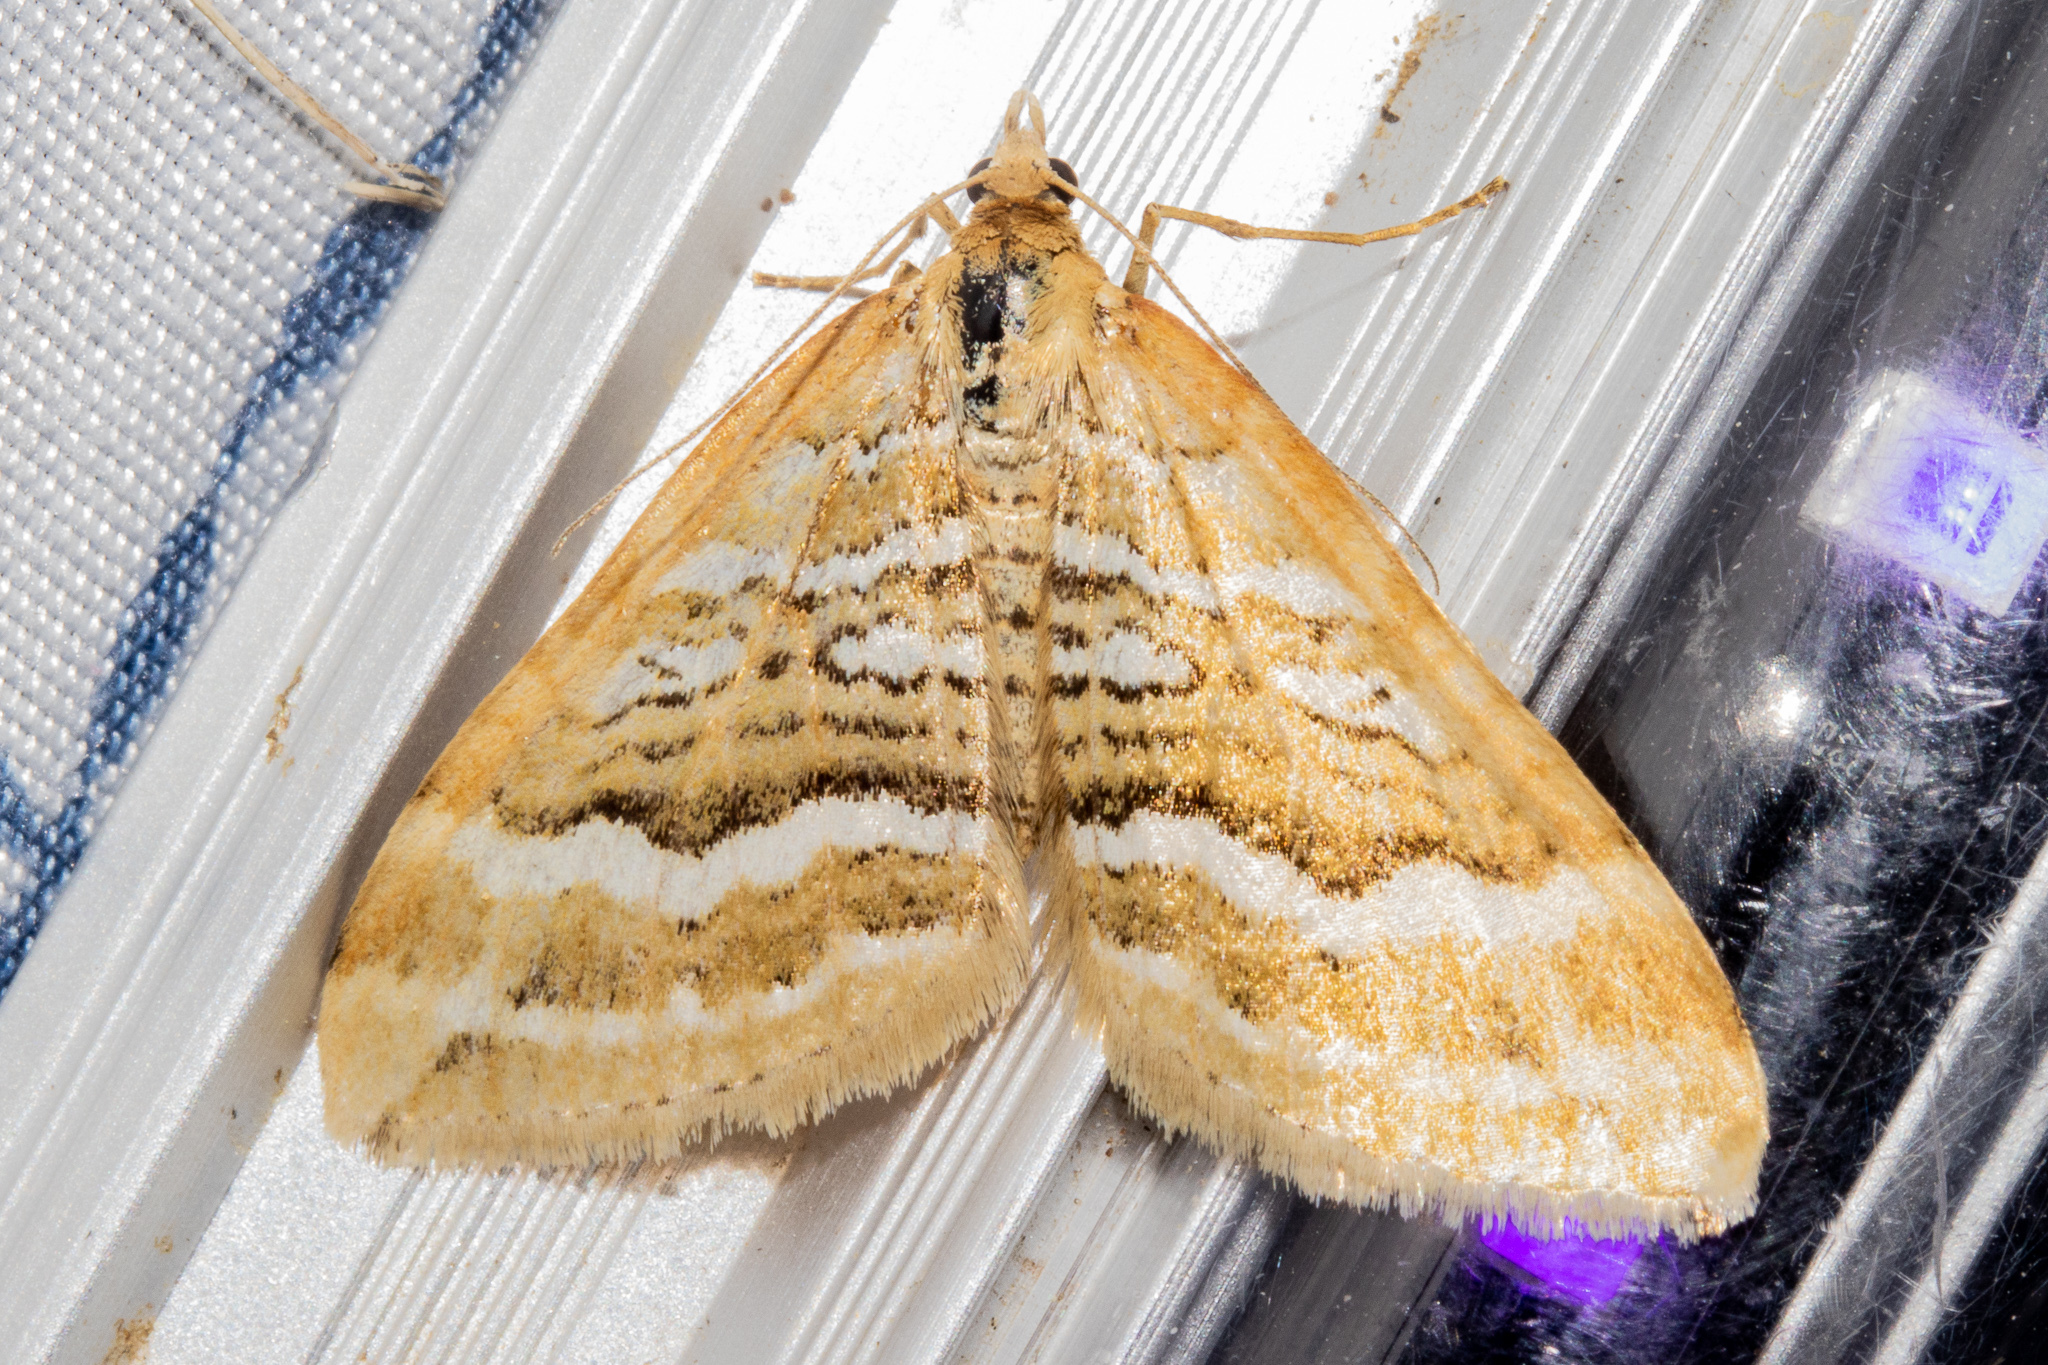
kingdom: Animalia
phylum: Arthropoda
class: Insecta
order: Lepidoptera
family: Geometridae
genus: Asaphodes
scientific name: Asaphodes cataphracta
